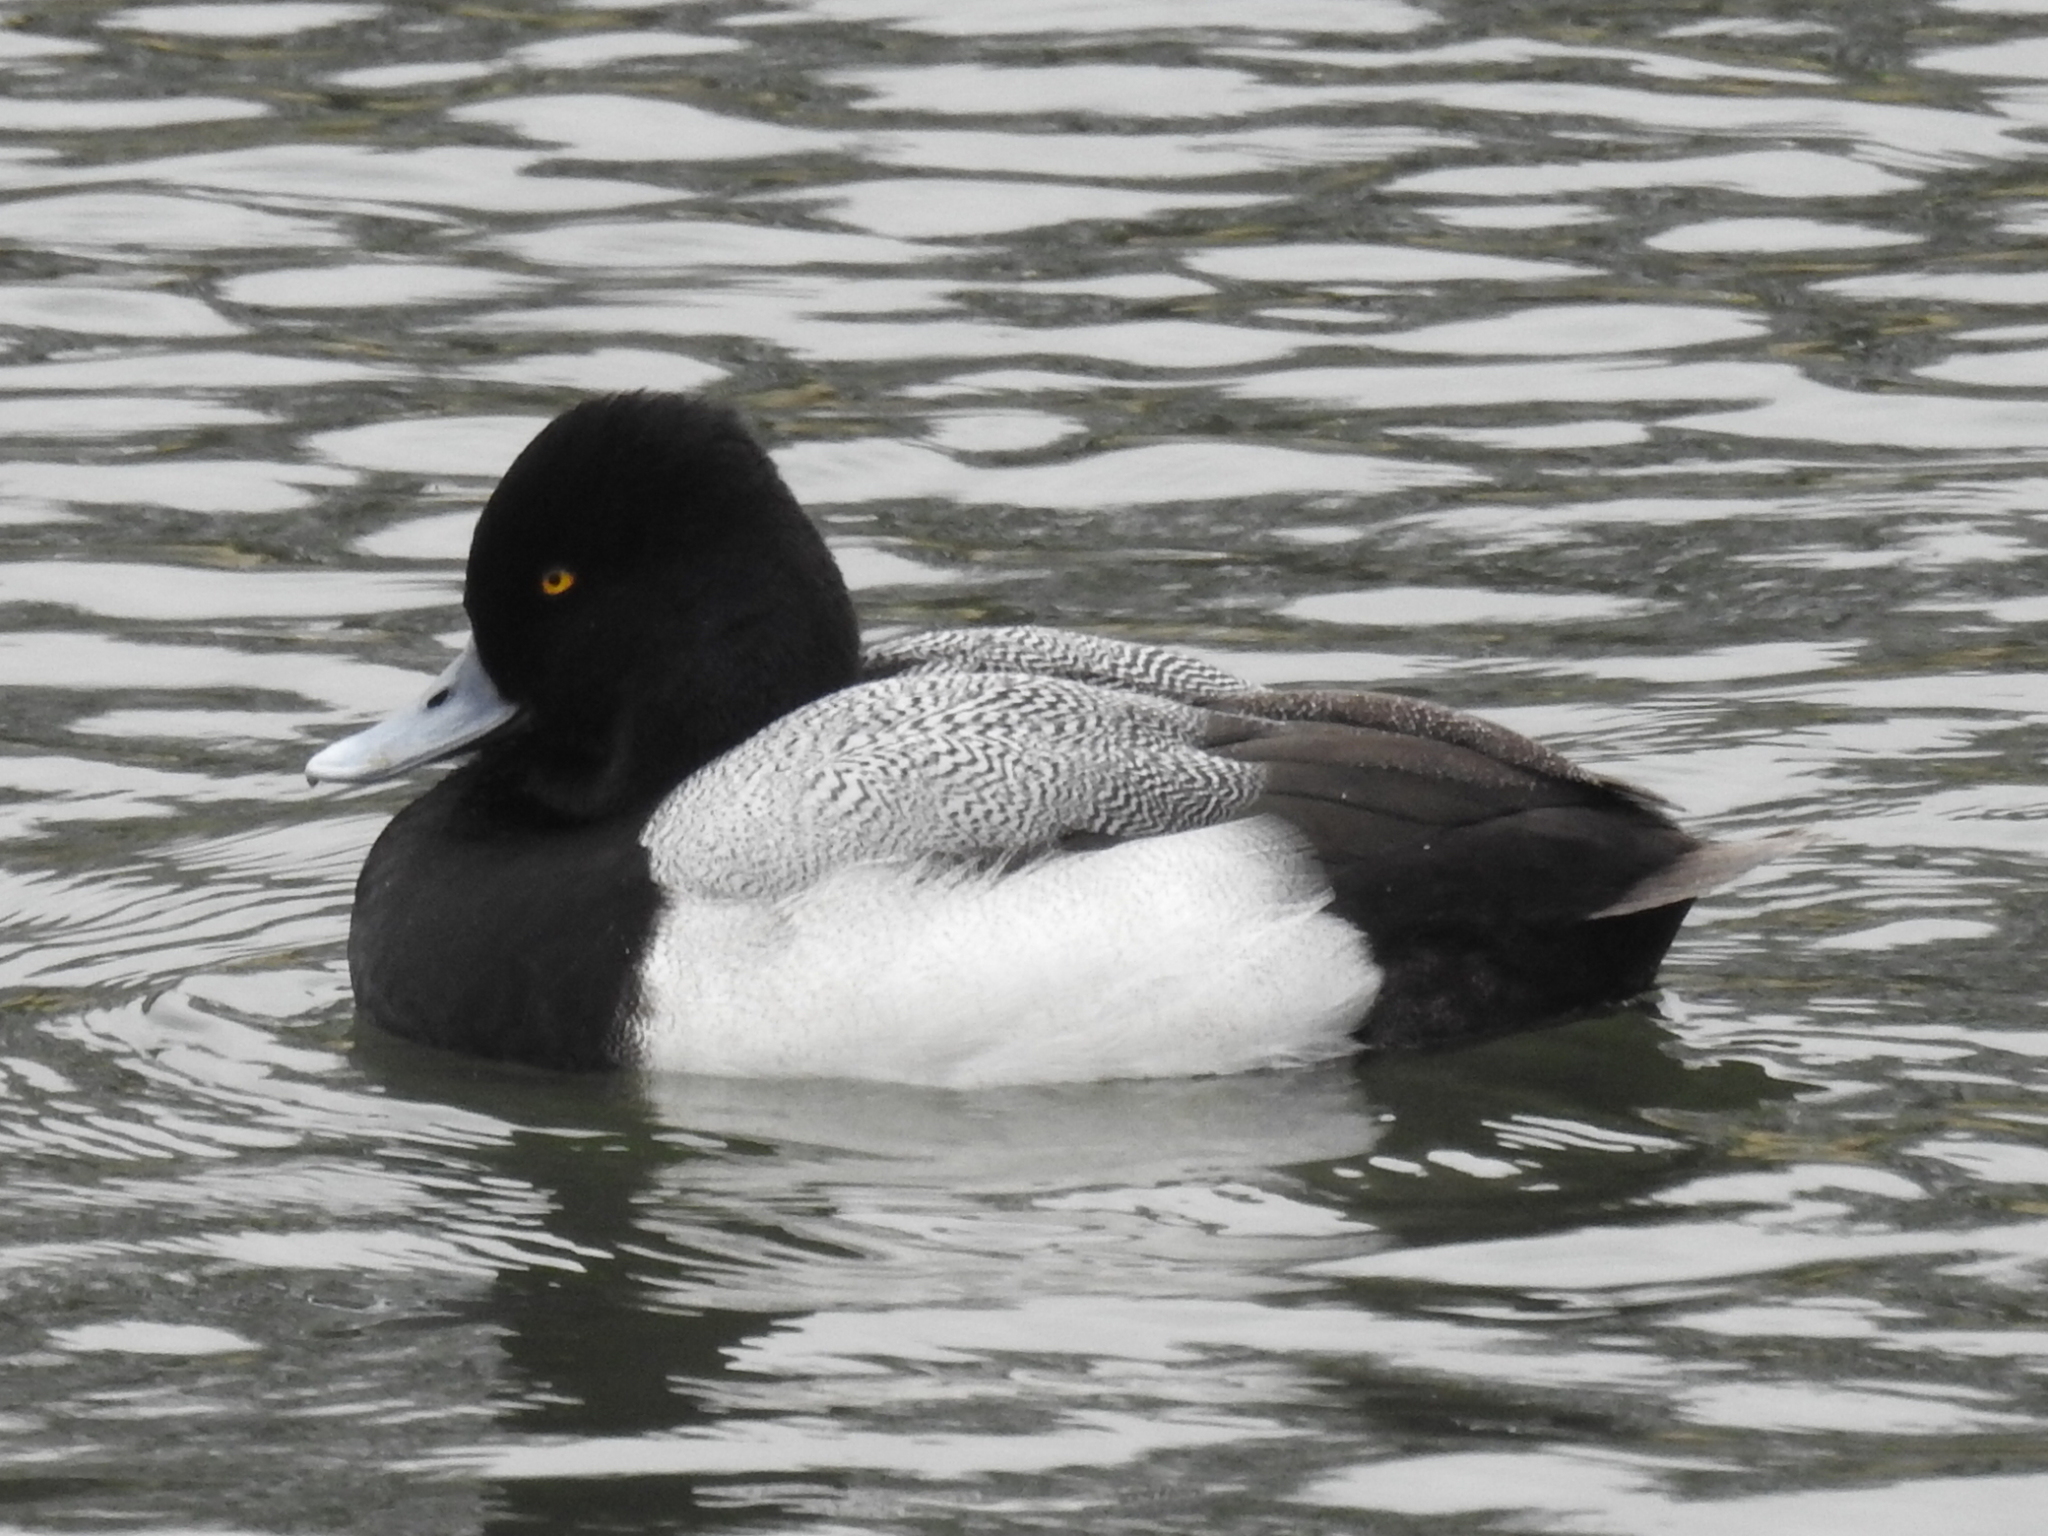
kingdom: Animalia
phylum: Chordata
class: Aves
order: Anseriformes
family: Anatidae
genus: Aythya
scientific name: Aythya affinis
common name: Lesser scaup
